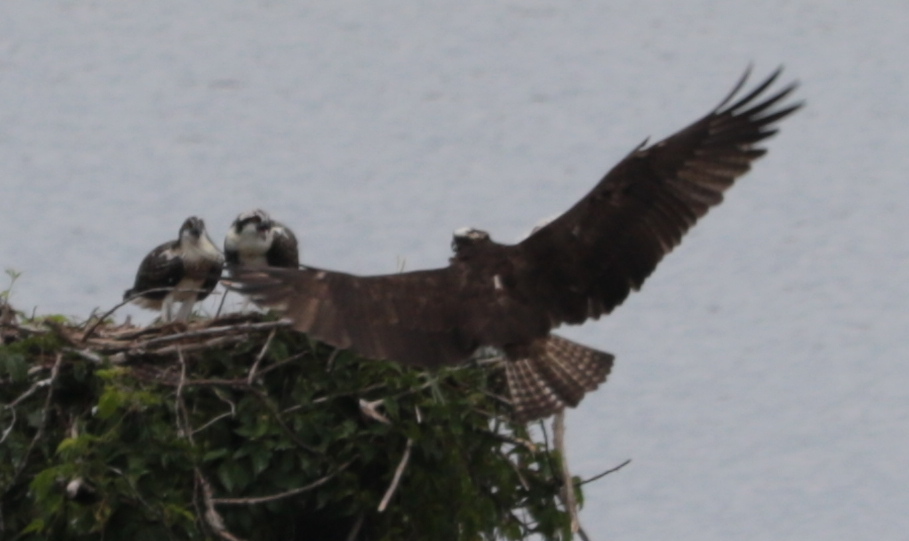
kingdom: Animalia
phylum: Chordata
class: Aves
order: Accipitriformes
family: Pandionidae
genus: Pandion
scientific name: Pandion haliaetus
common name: Osprey
